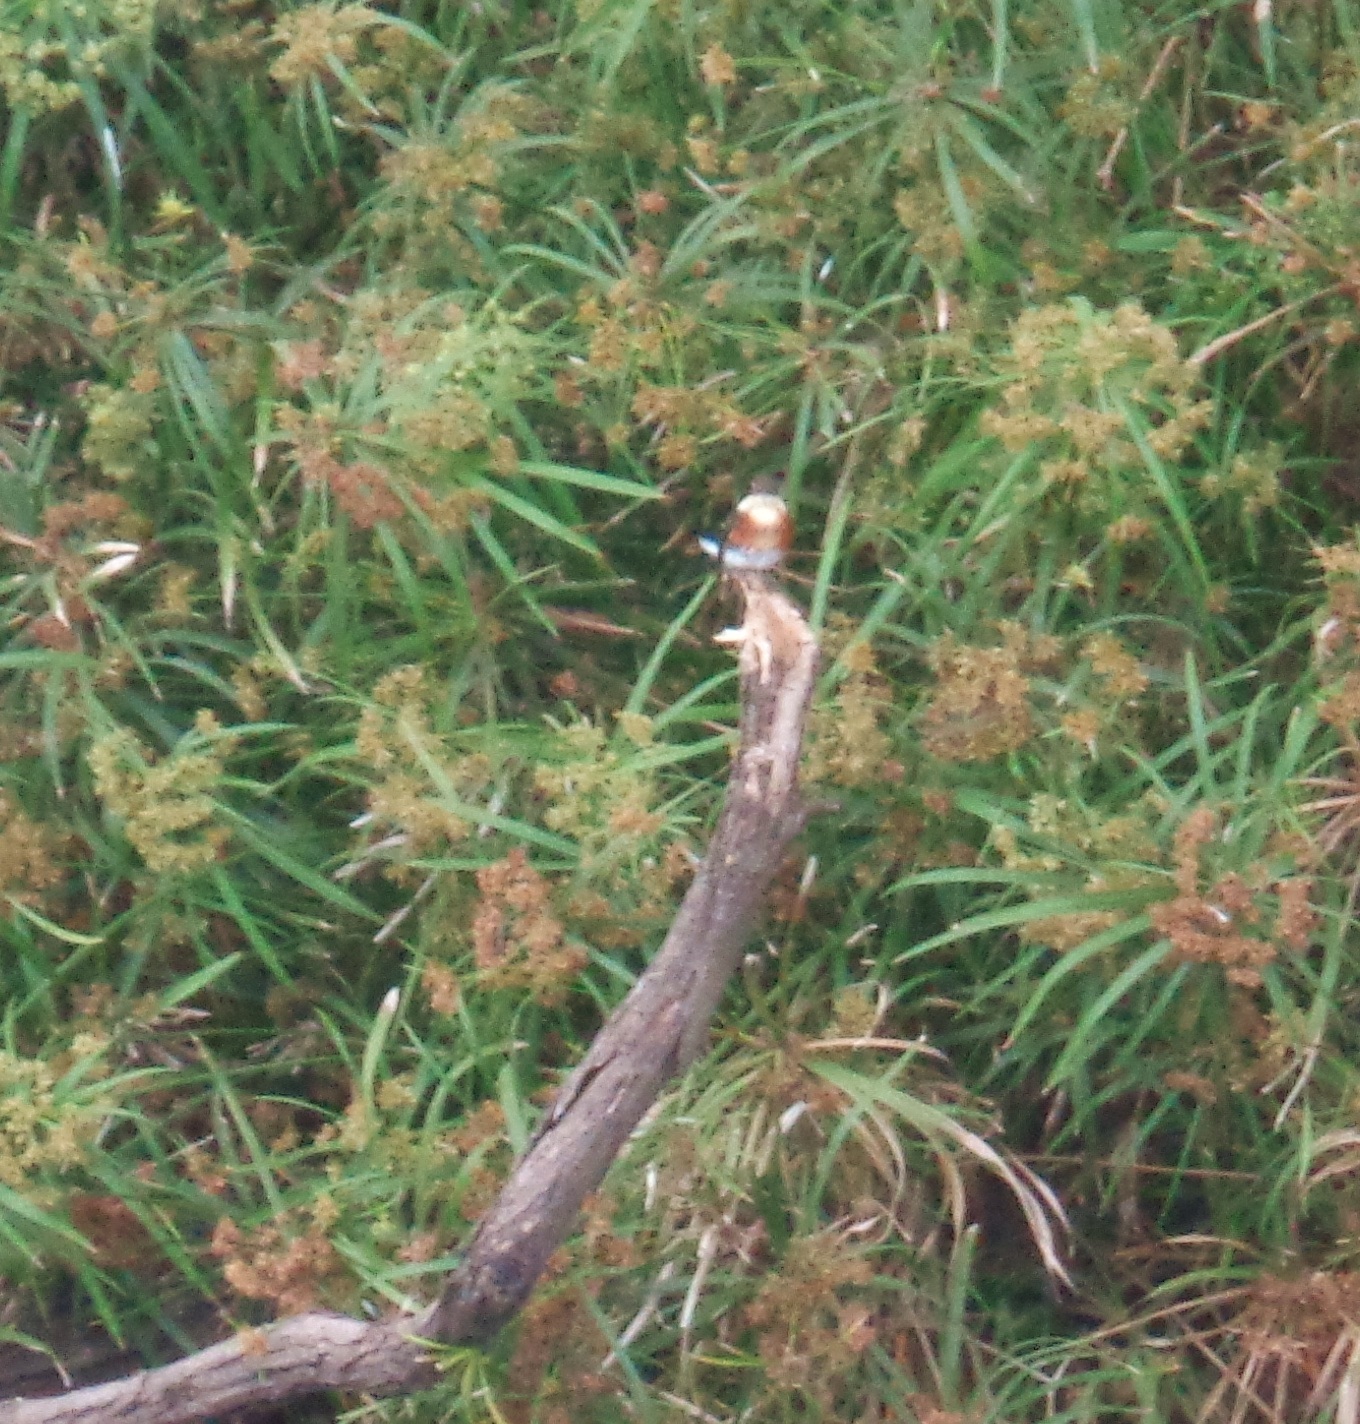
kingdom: Animalia
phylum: Chordata
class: Aves
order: Coraciiformes
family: Alcedinidae
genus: Chloroceryle
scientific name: Chloroceryle americana
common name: Green kingfisher
